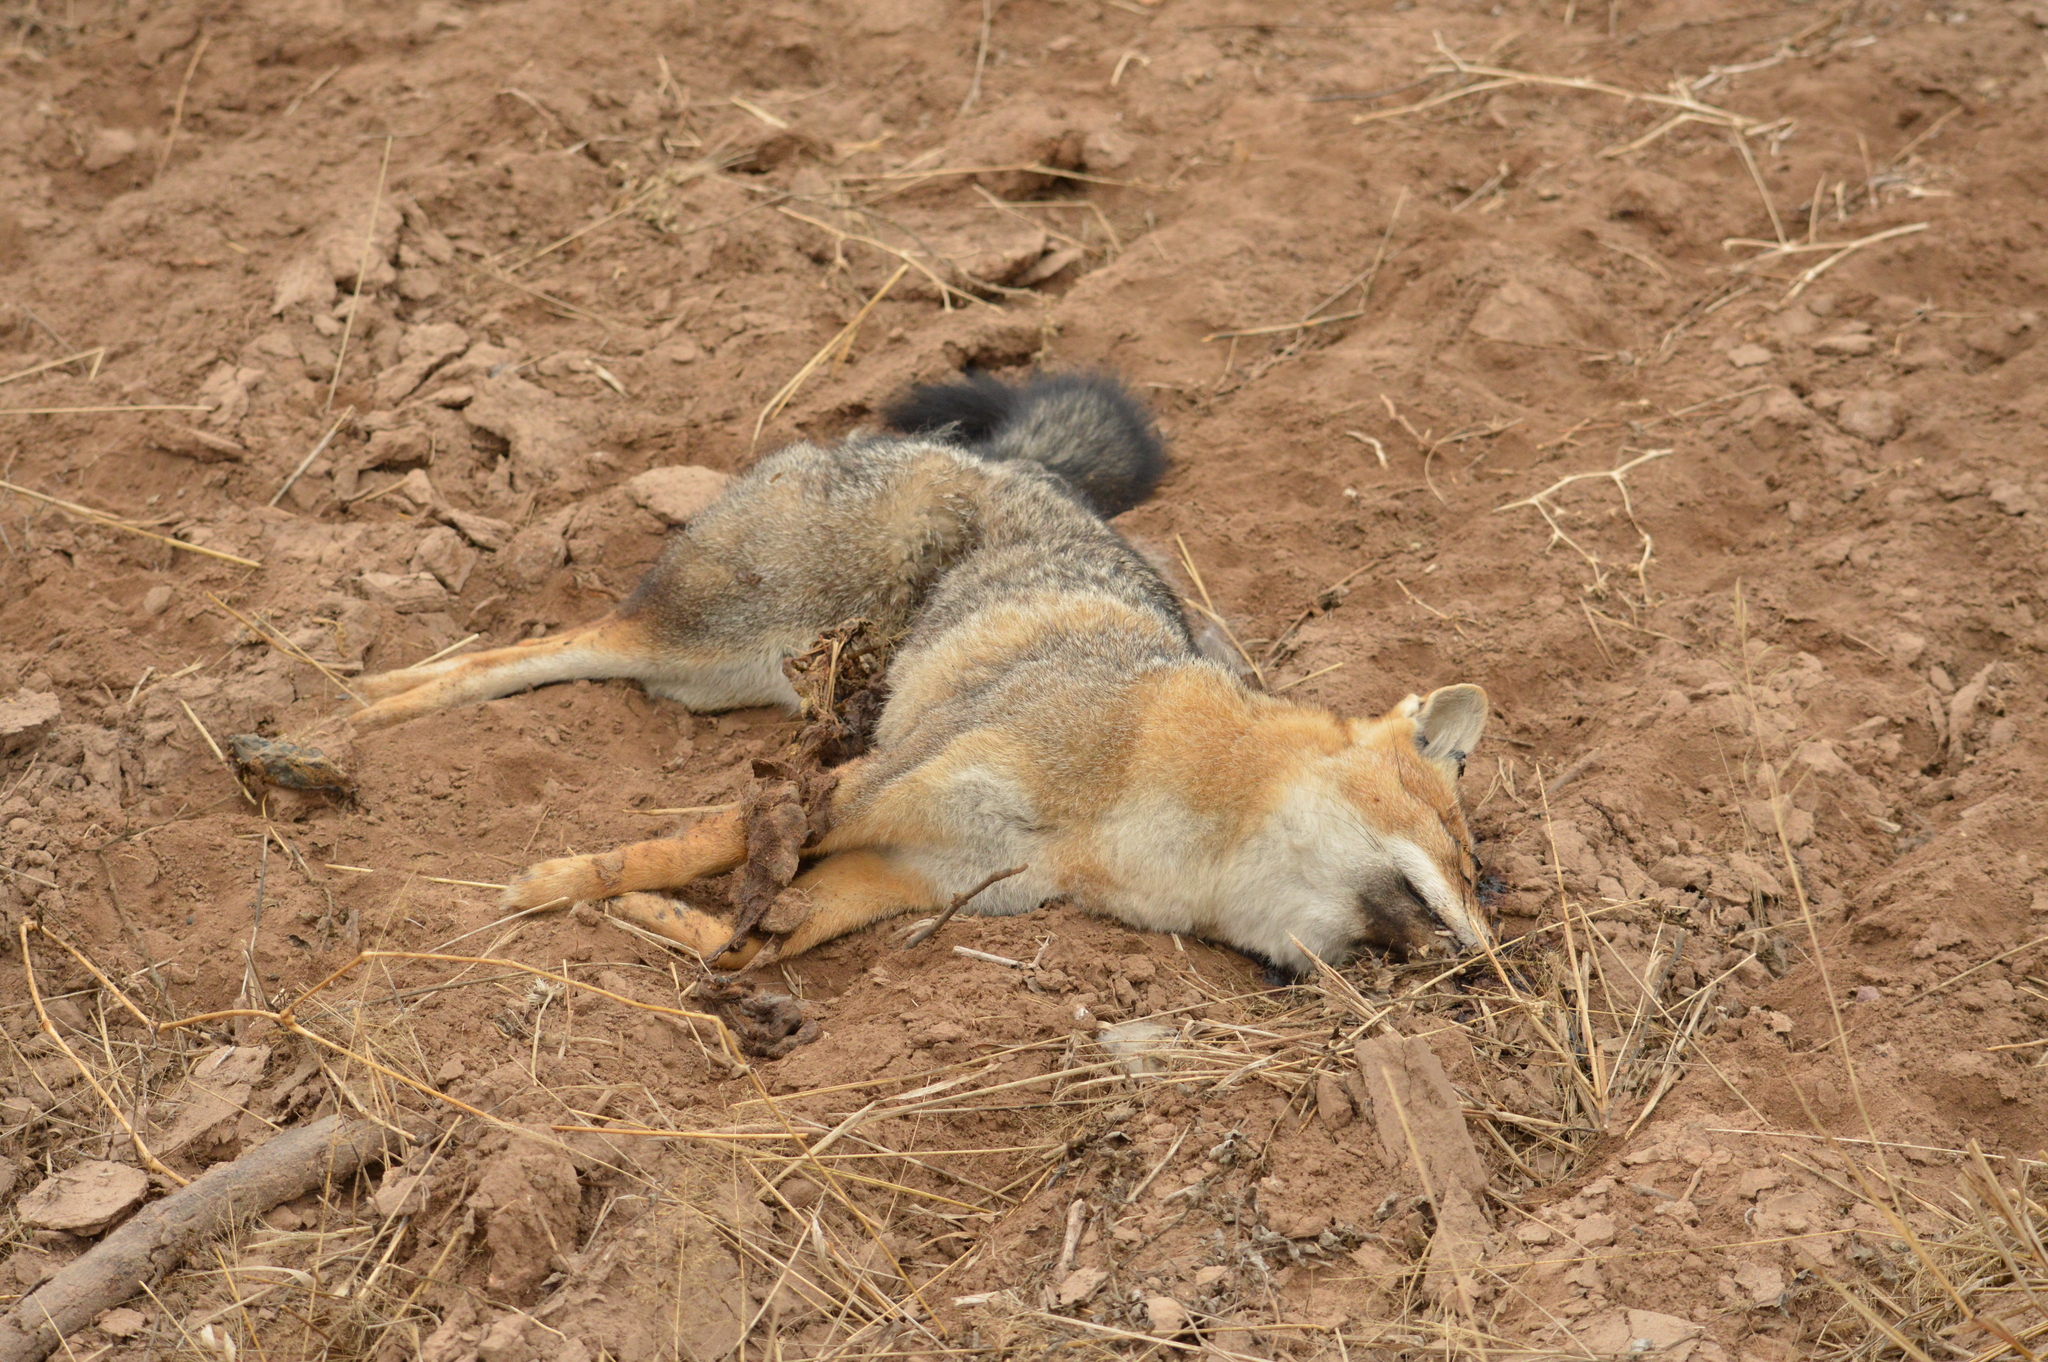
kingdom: Animalia
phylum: Chordata
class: Mammalia
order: Carnivora
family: Canidae
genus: Lycalopex
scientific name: Lycalopex gymnocercus
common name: Pampas fox
